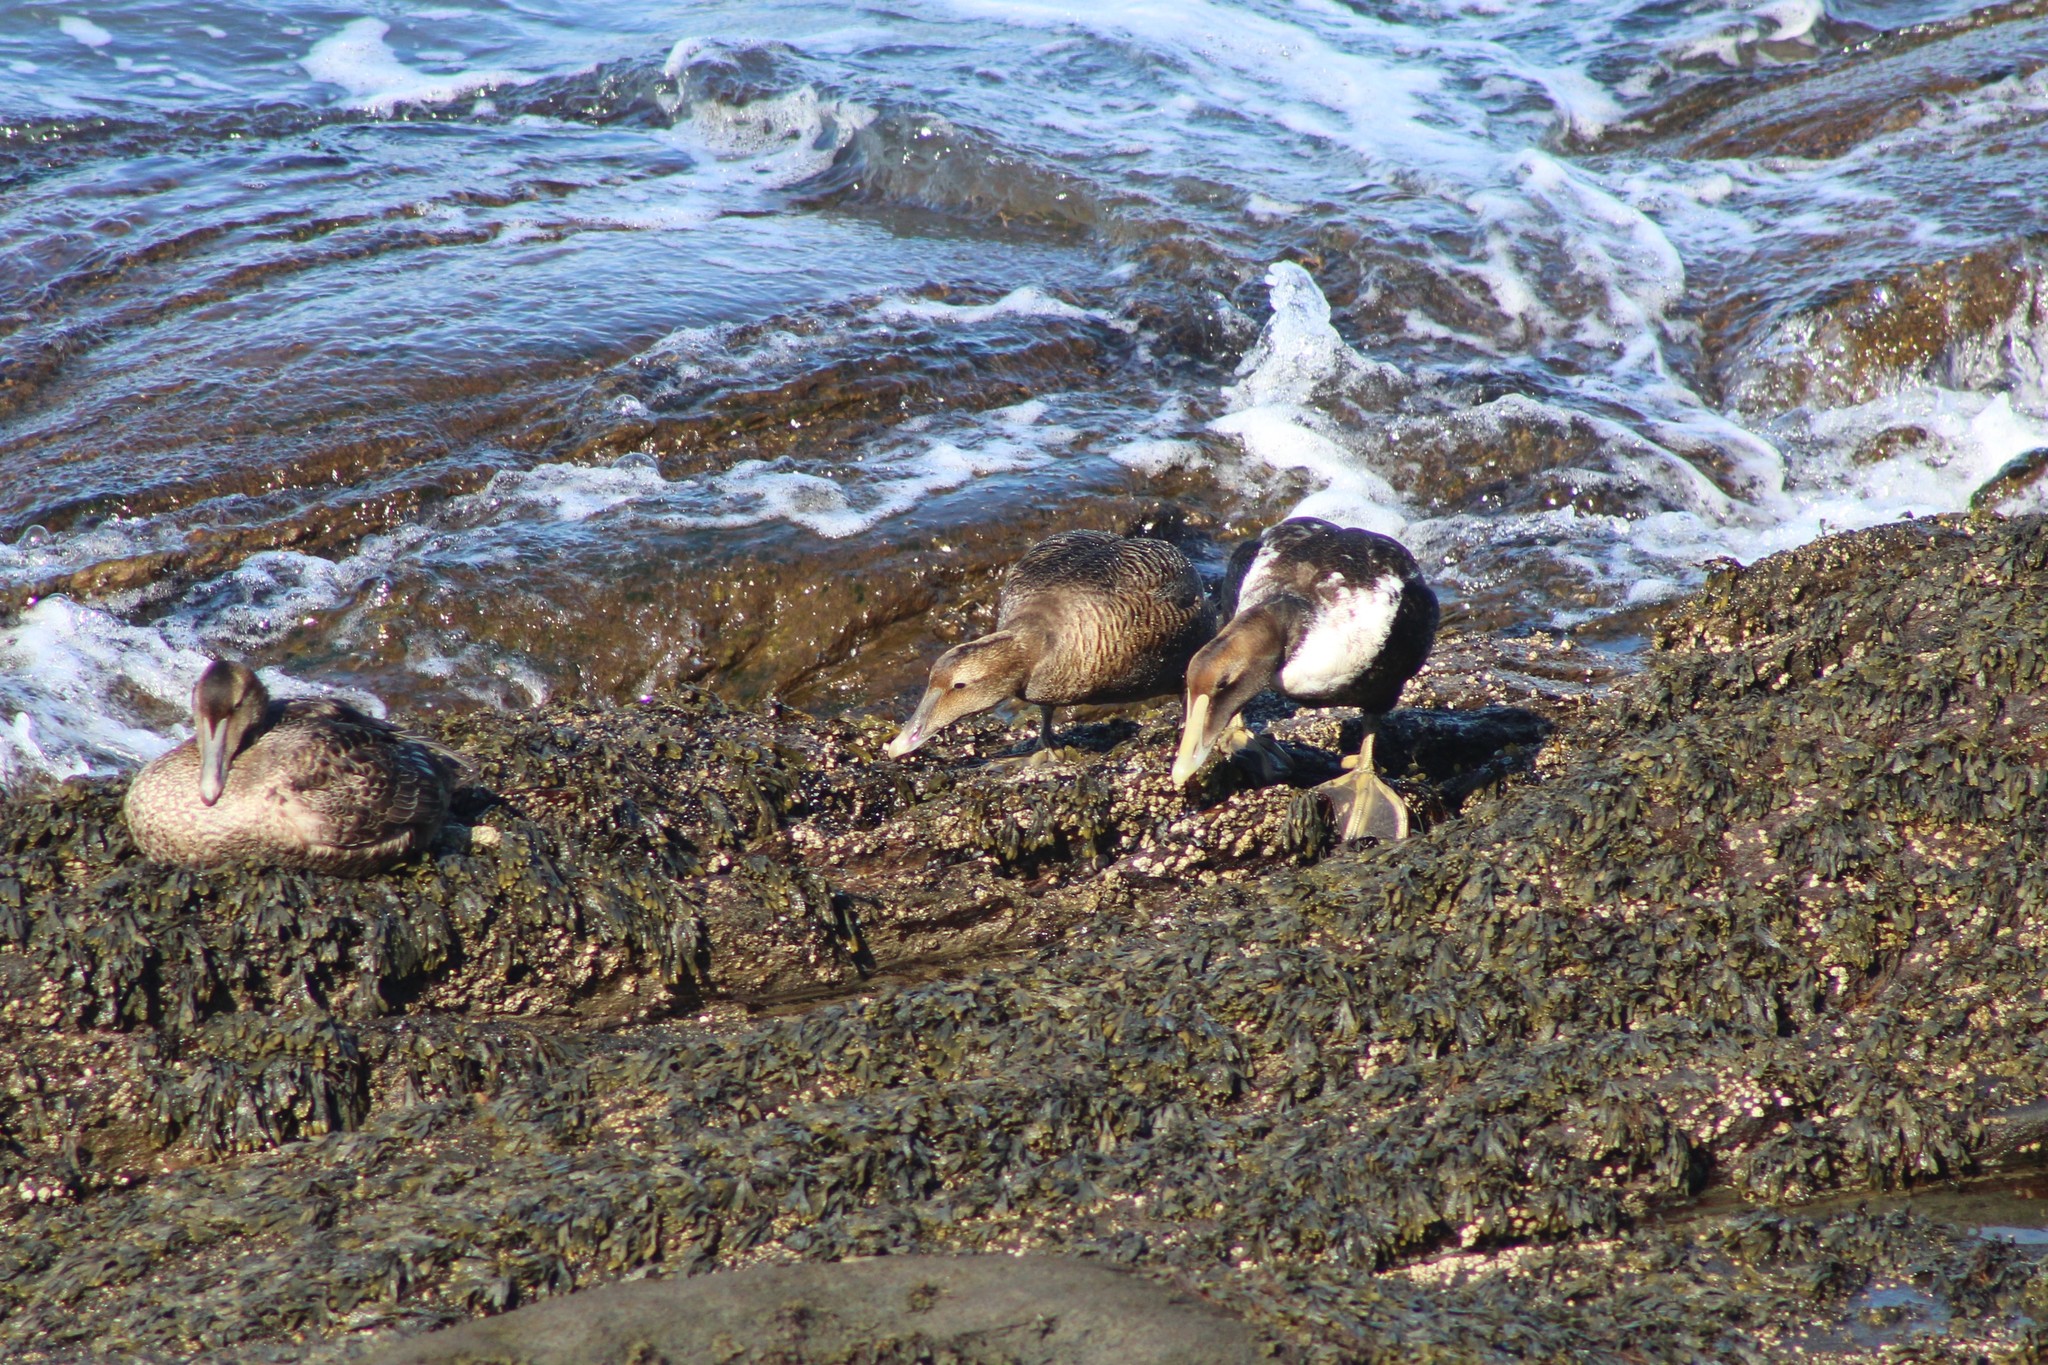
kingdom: Animalia
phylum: Chordata
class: Aves
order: Anseriformes
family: Anatidae
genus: Somateria
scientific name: Somateria mollissima
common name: Common eider
